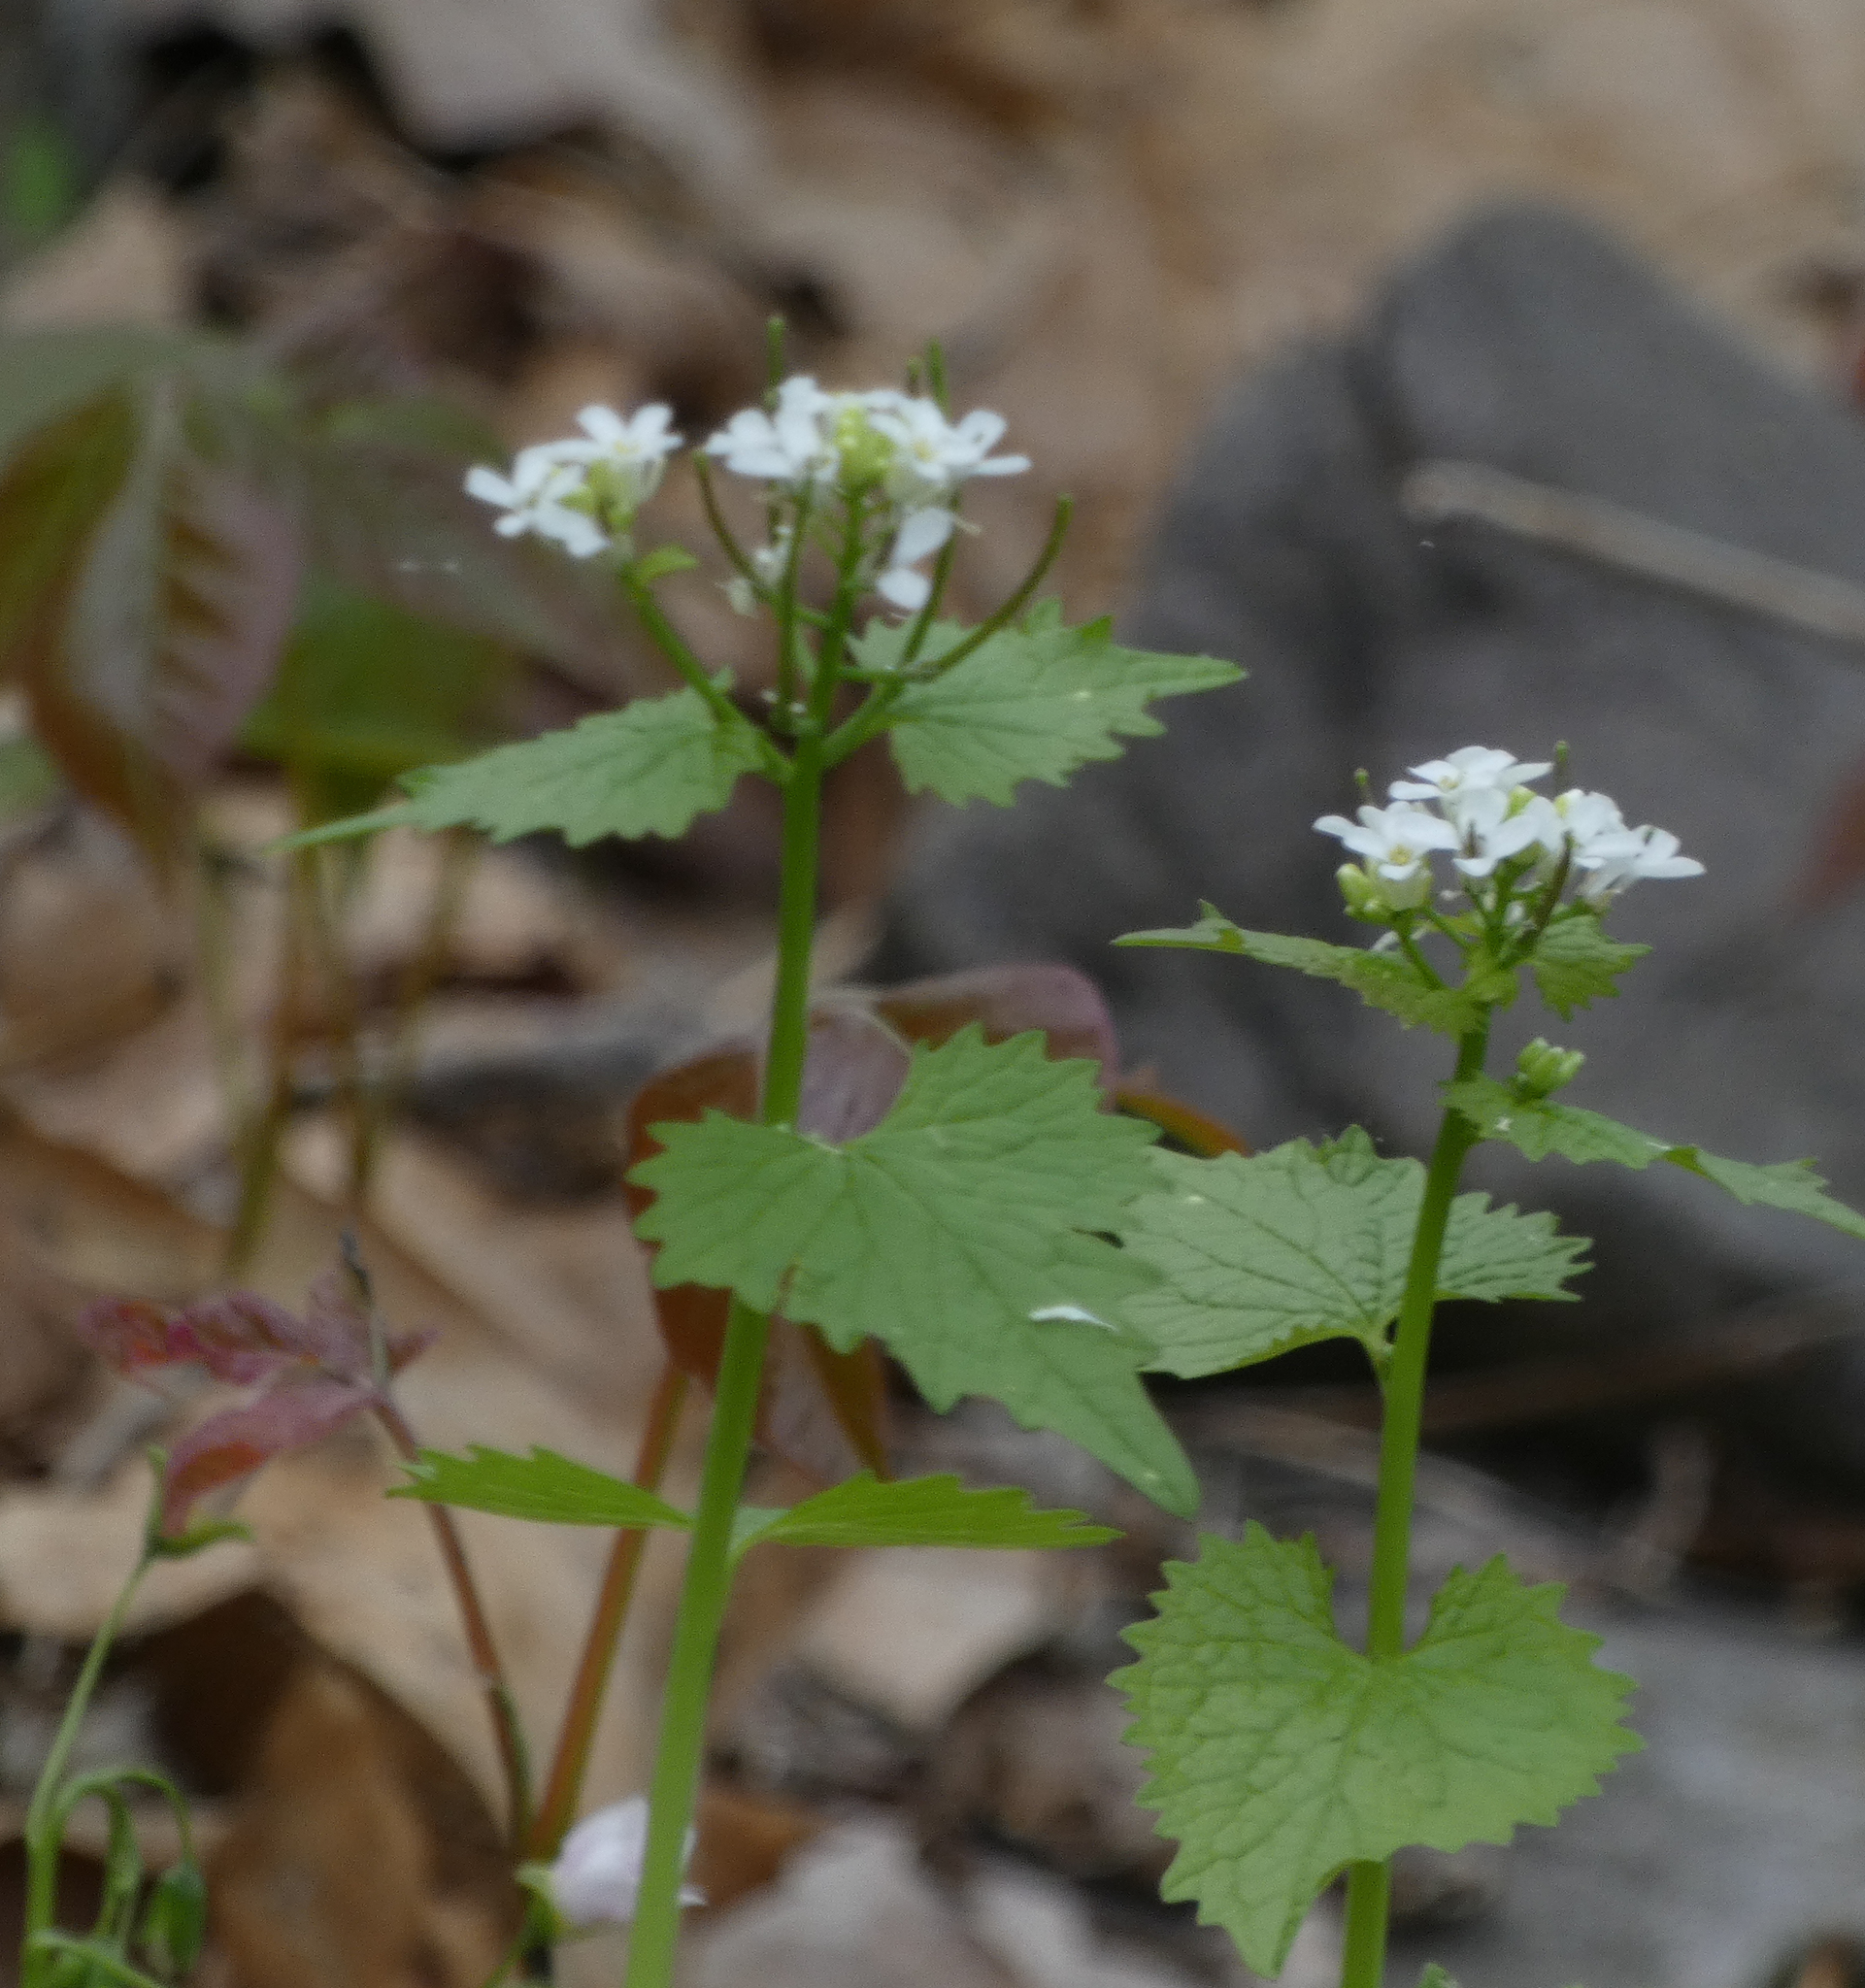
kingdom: Plantae
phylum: Tracheophyta
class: Magnoliopsida
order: Brassicales
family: Brassicaceae
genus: Alliaria
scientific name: Alliaria petiolata
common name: Garlic mustard
